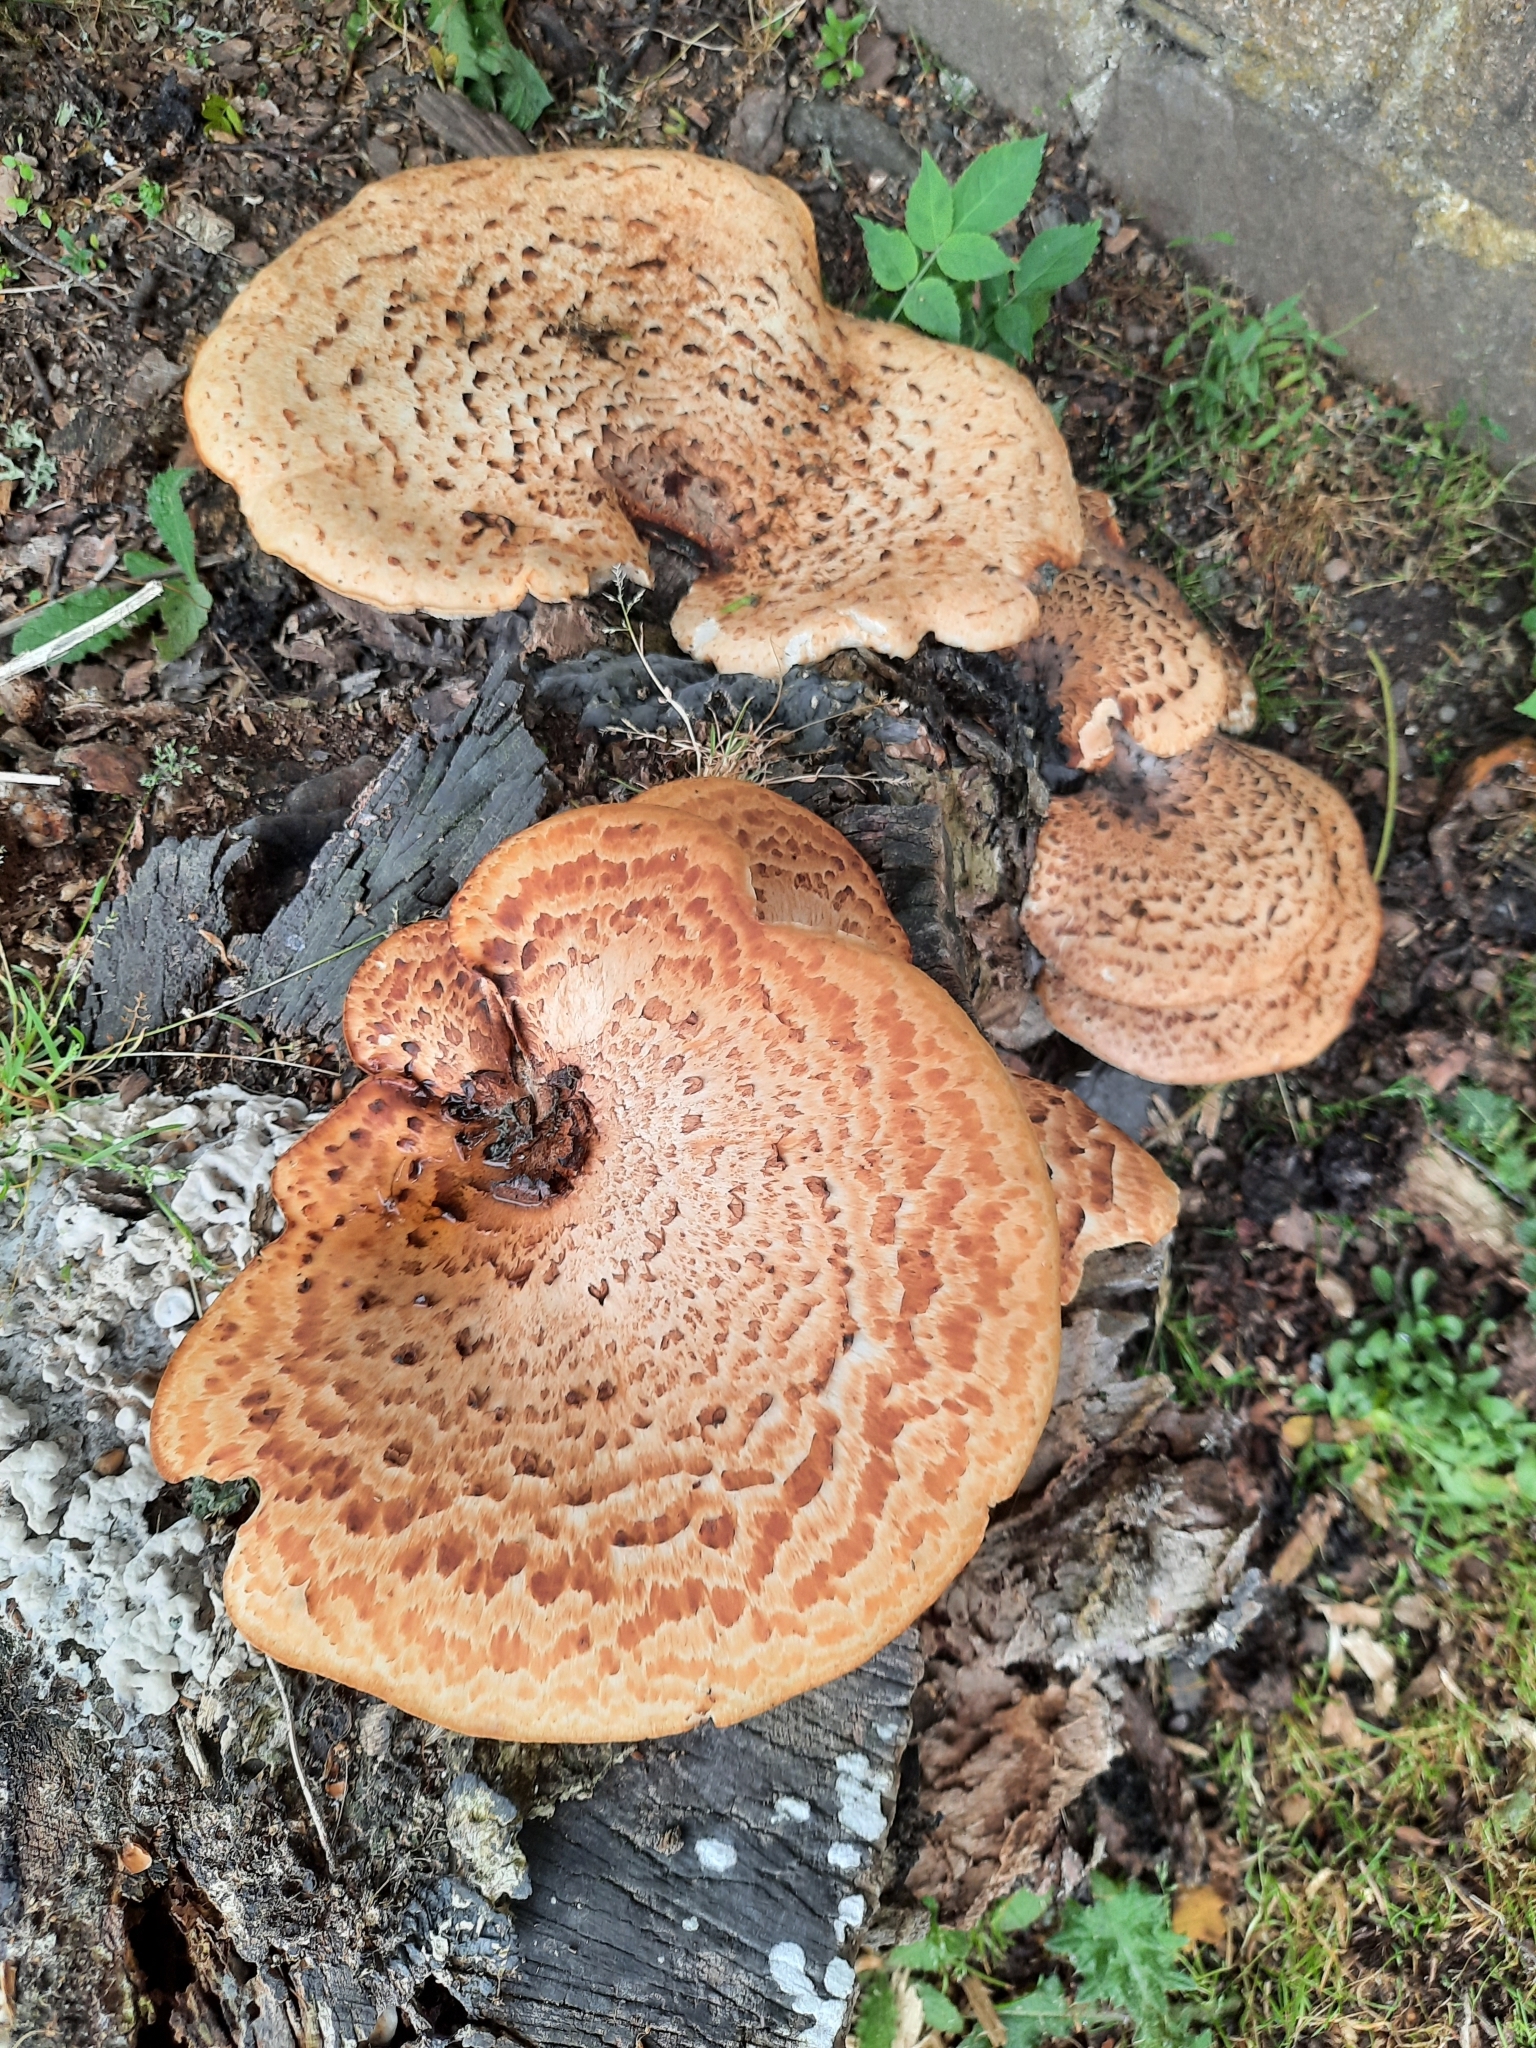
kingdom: Fungi
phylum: Basidiomycota
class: Agaricomycetes
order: Polyporales
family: Polyporaceae
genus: Cerioporus
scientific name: Cerioporus squamosus
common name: Dryad's saddle
